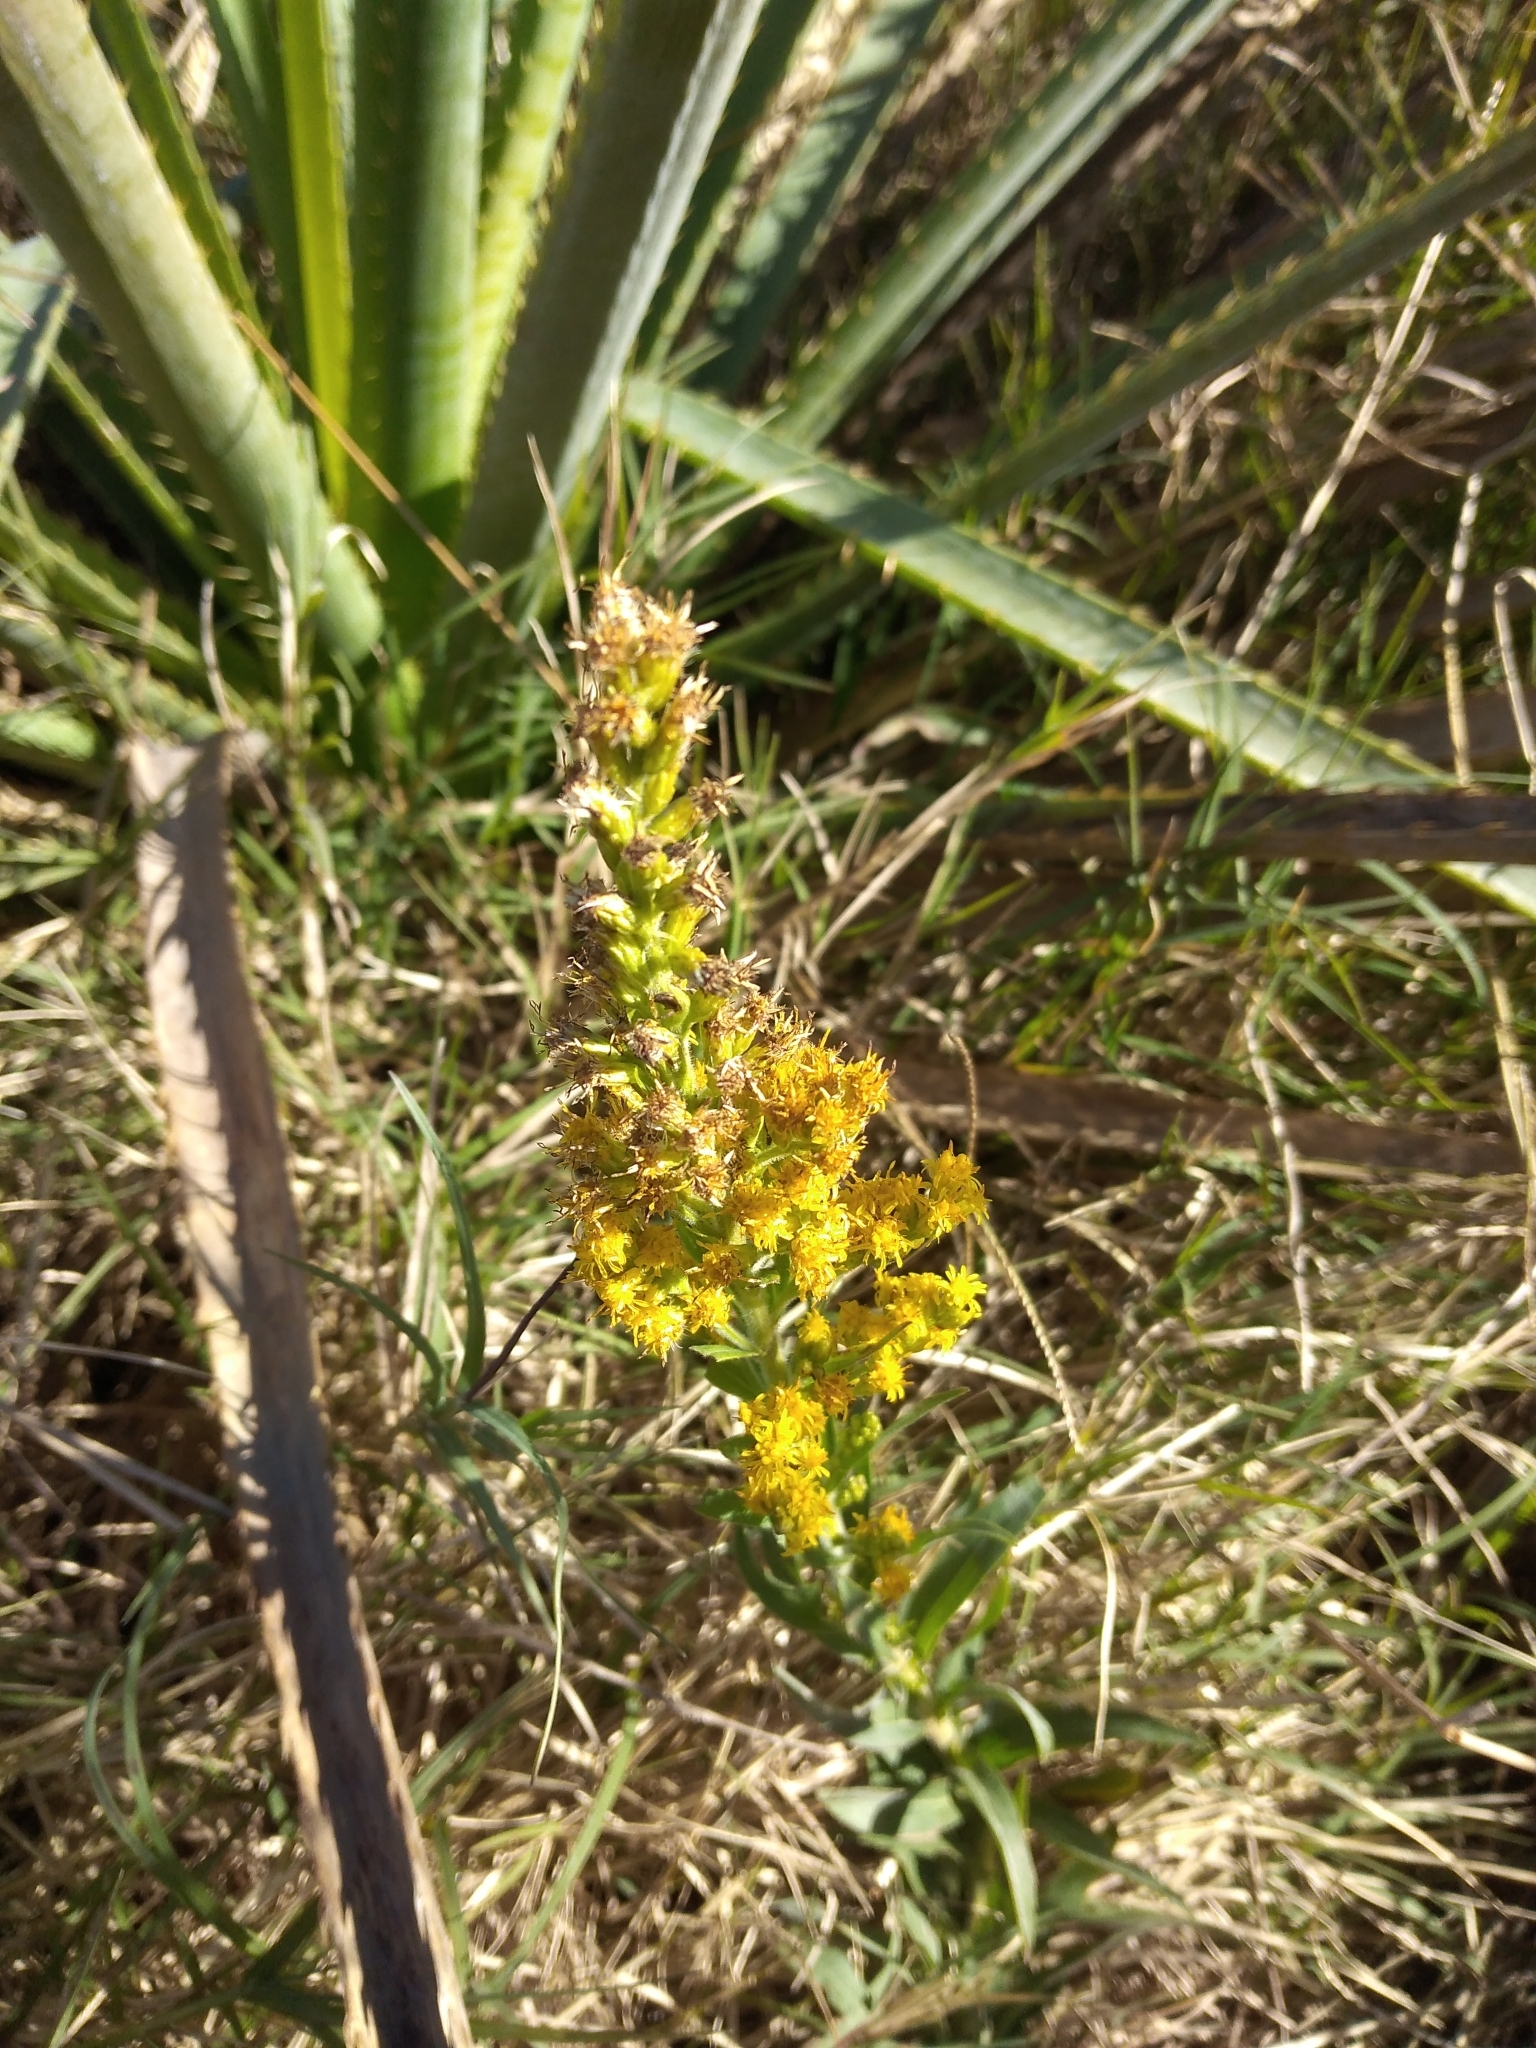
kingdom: Plantae
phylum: Tracheophyta
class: Magnoliopsida
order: Asterales
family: Asteraceae
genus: Solidago
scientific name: Solidago chilensis
